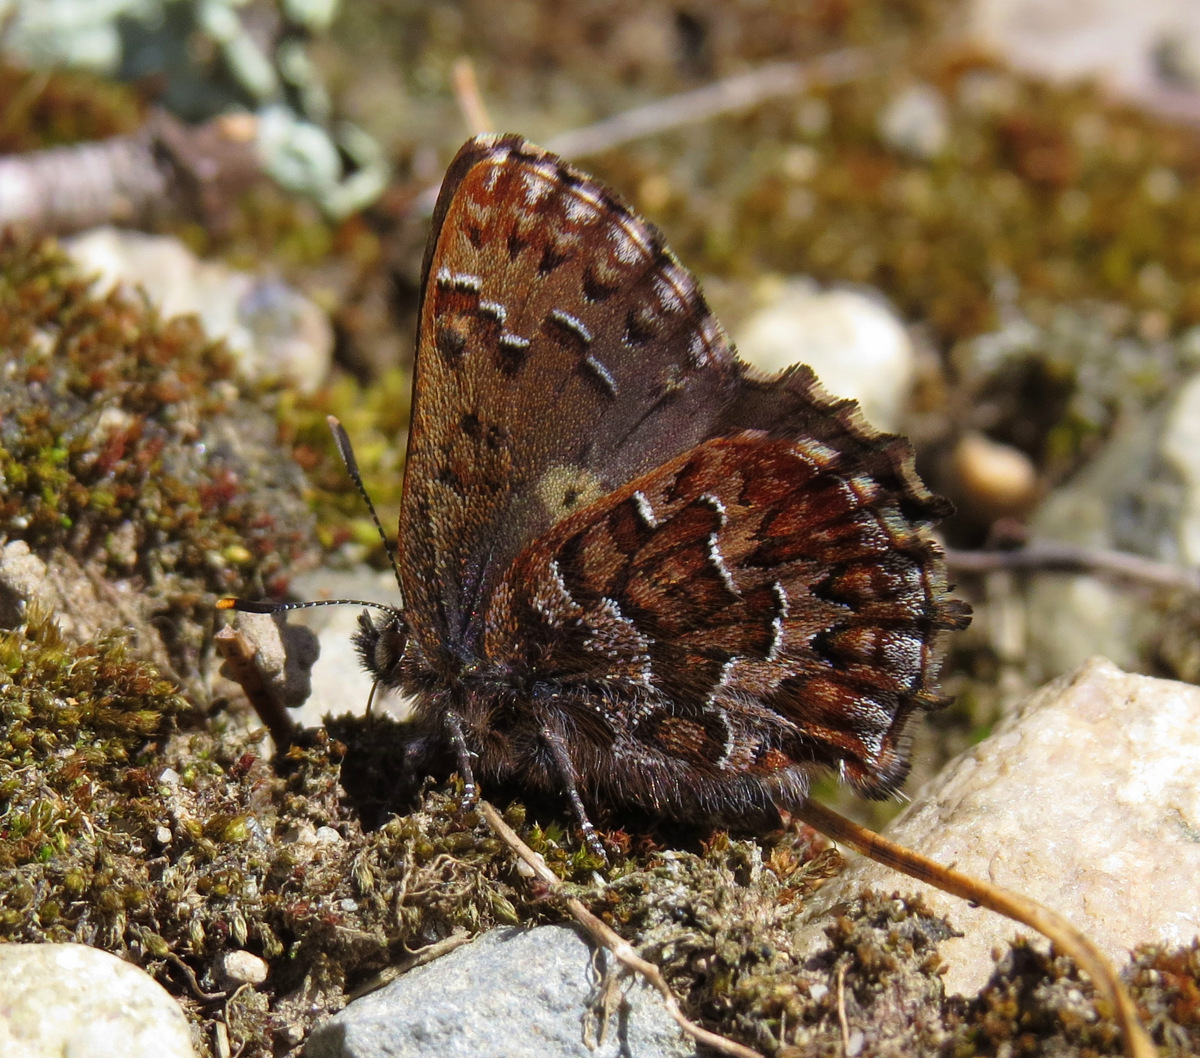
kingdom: Animalia
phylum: Arthropoda
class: Insecta
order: Lepidoptera
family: Lycaenidae
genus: Incisalia
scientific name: Incisalia niphon
